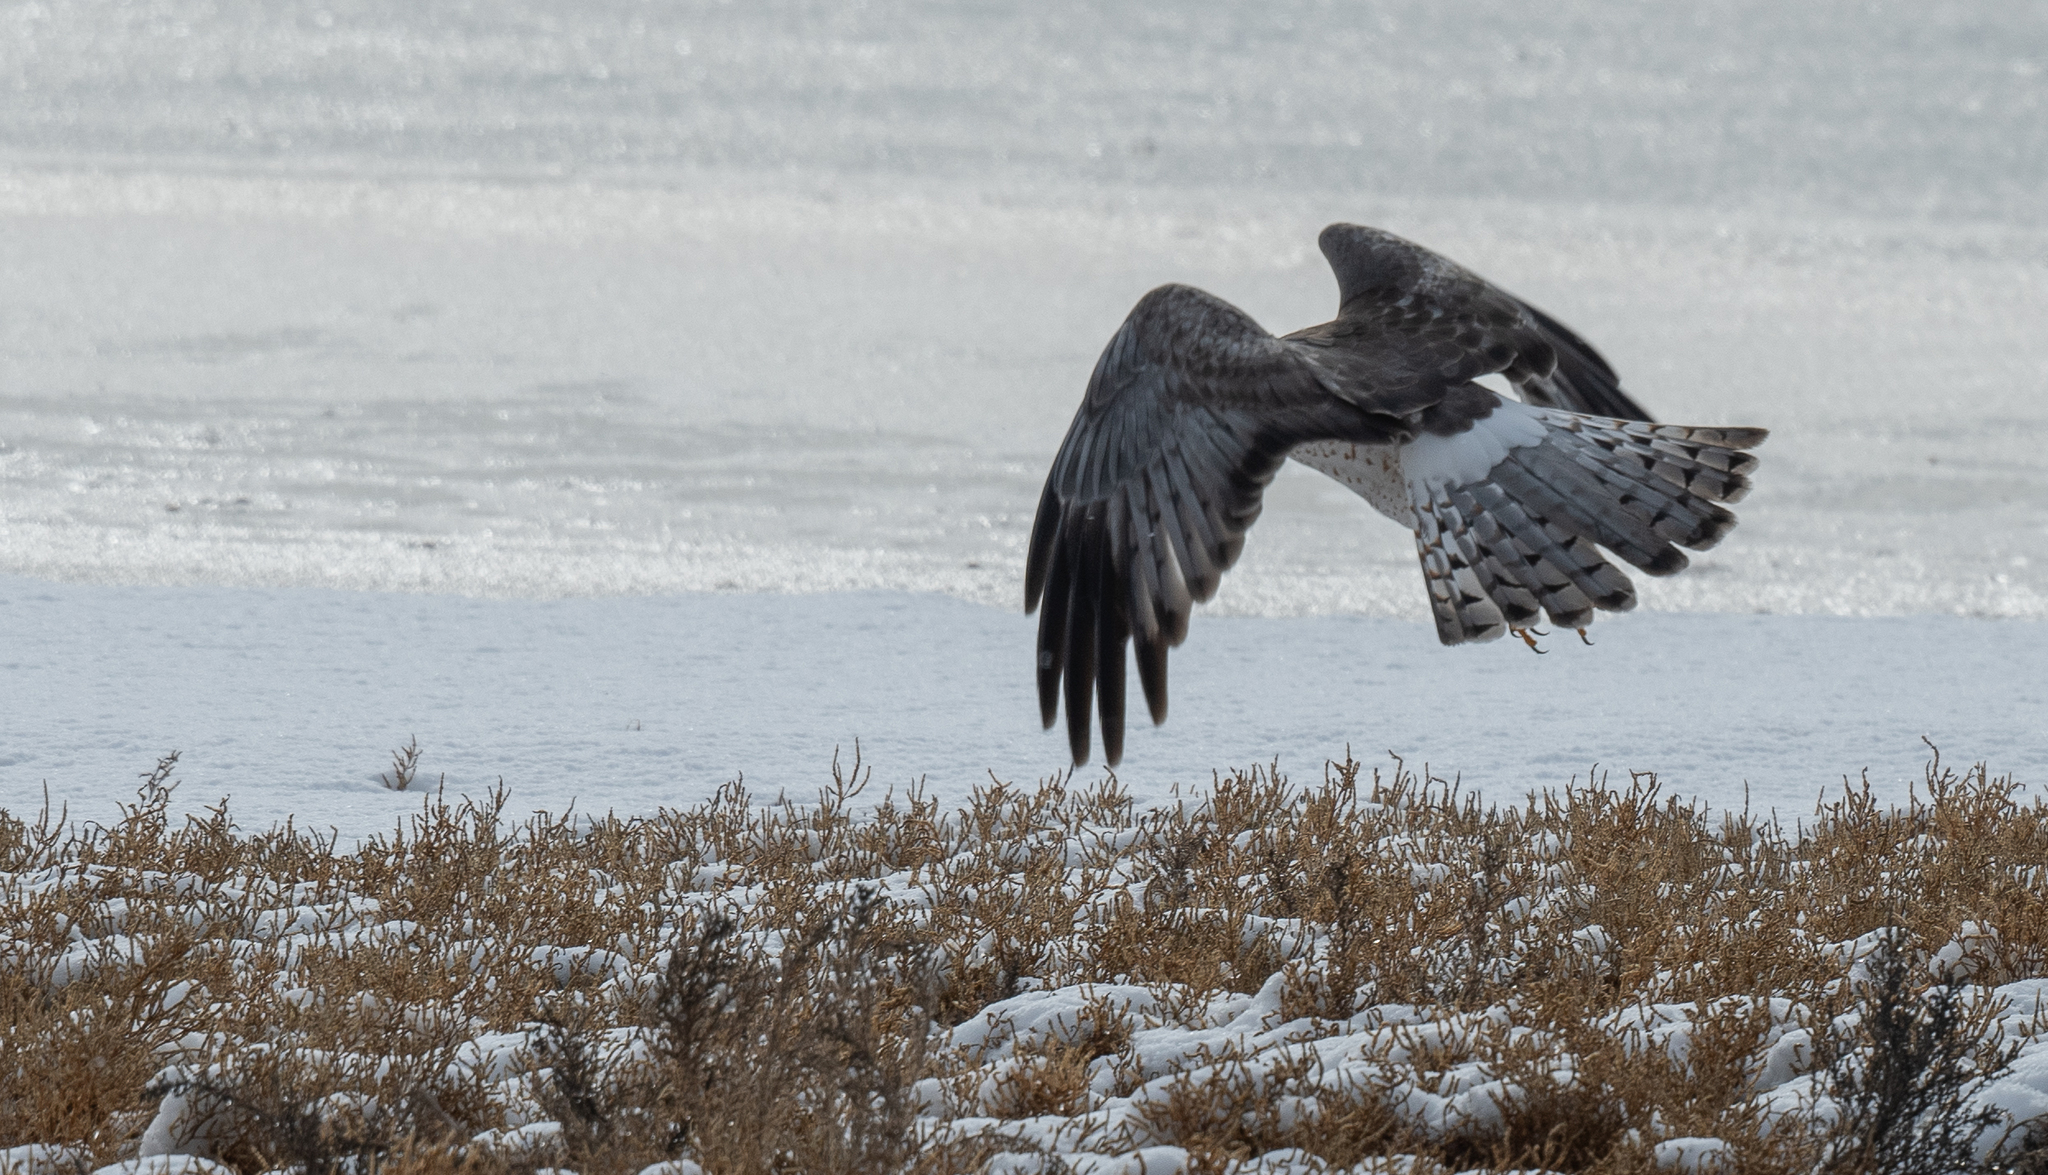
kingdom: Animalia
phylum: Chordata
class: Aves
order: Accipitriformes
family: Accipitridae
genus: Circus
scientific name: Circus cyaneus
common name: Hen harrier
